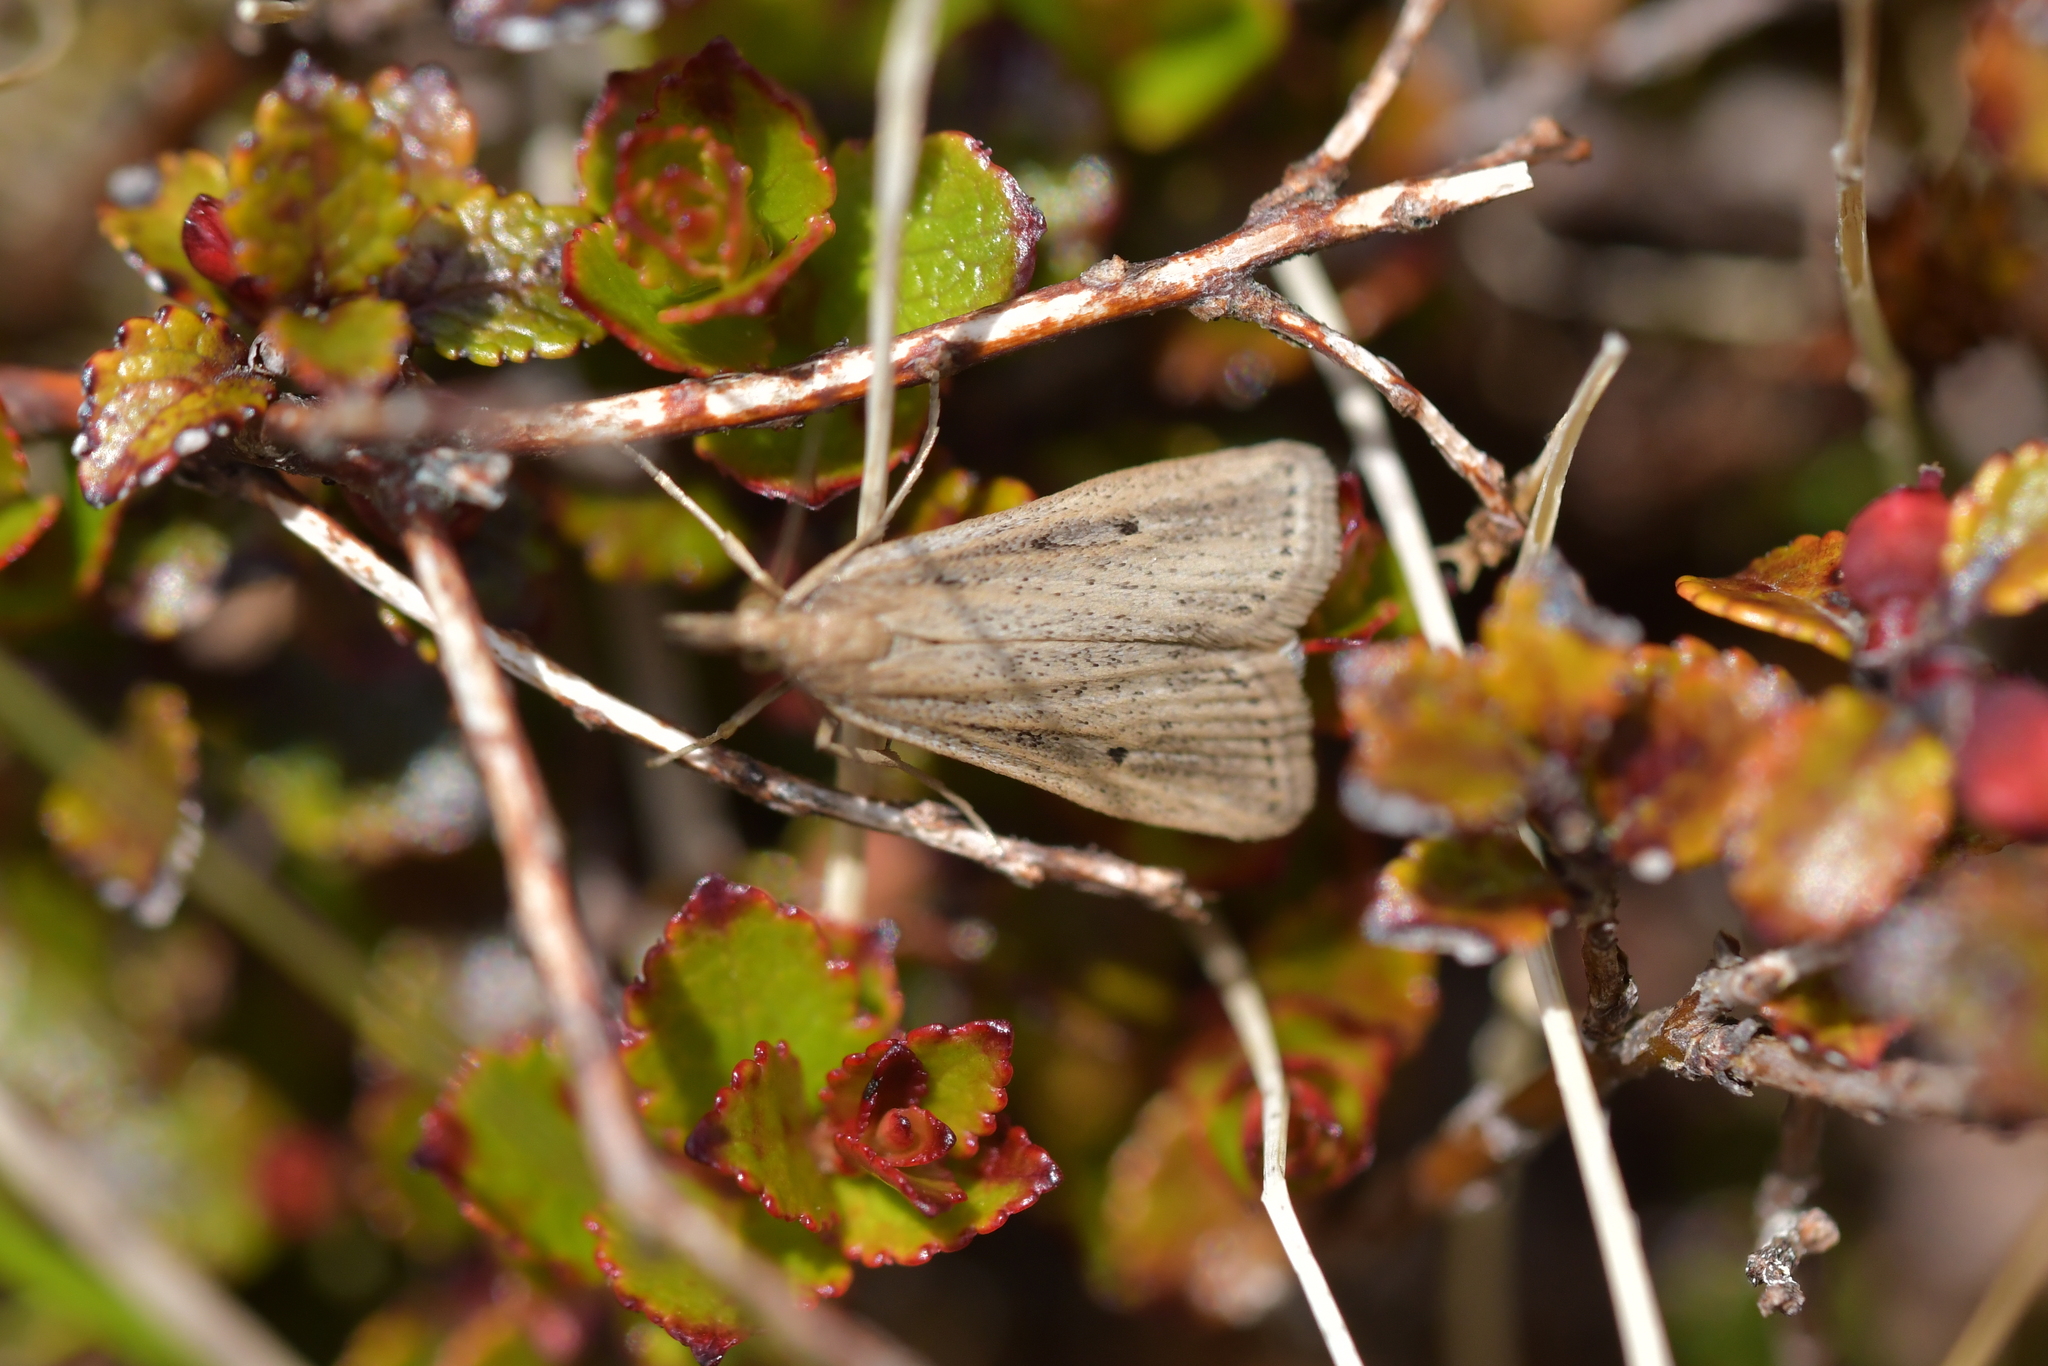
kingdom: Animalia
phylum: Arthropoda
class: Insecta
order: Lepidoptera
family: Crambidae
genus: Eudonia
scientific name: Eudonia sabulosella
